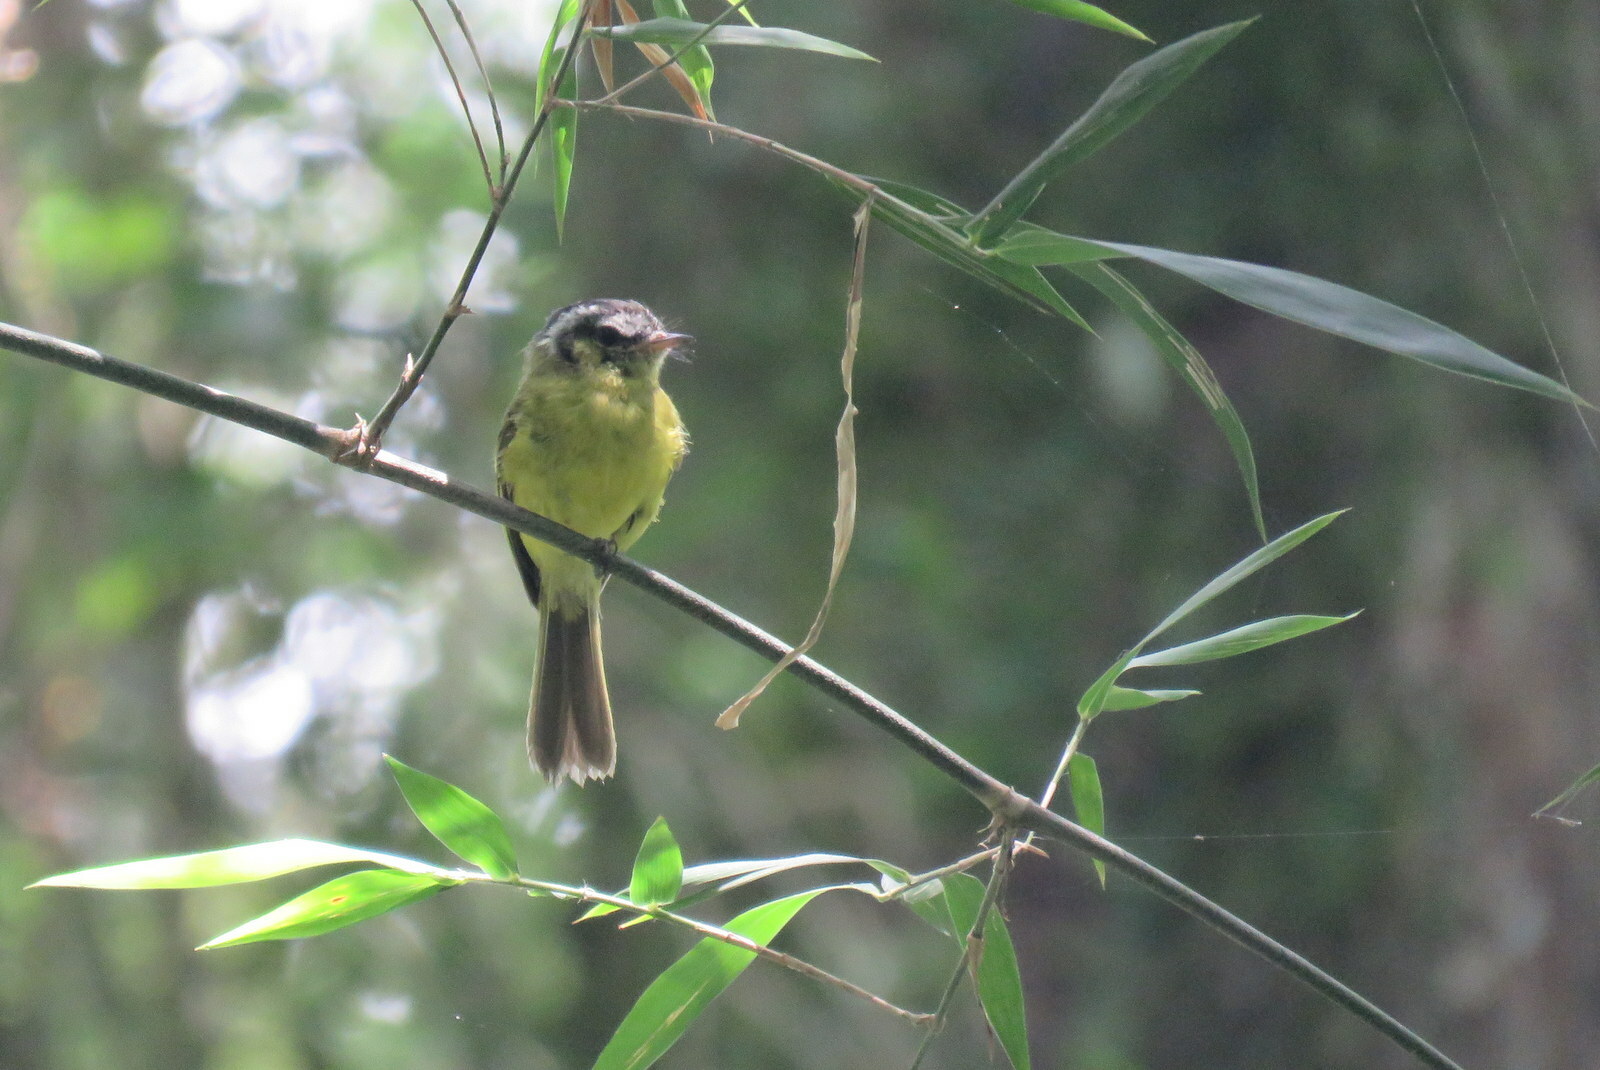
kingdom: Animalia
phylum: Chordata
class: Aves
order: Passeriformes
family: Tyrannidae
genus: Phylloscartes
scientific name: Phylloscartes eximius
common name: Southern bristle-tyrant
